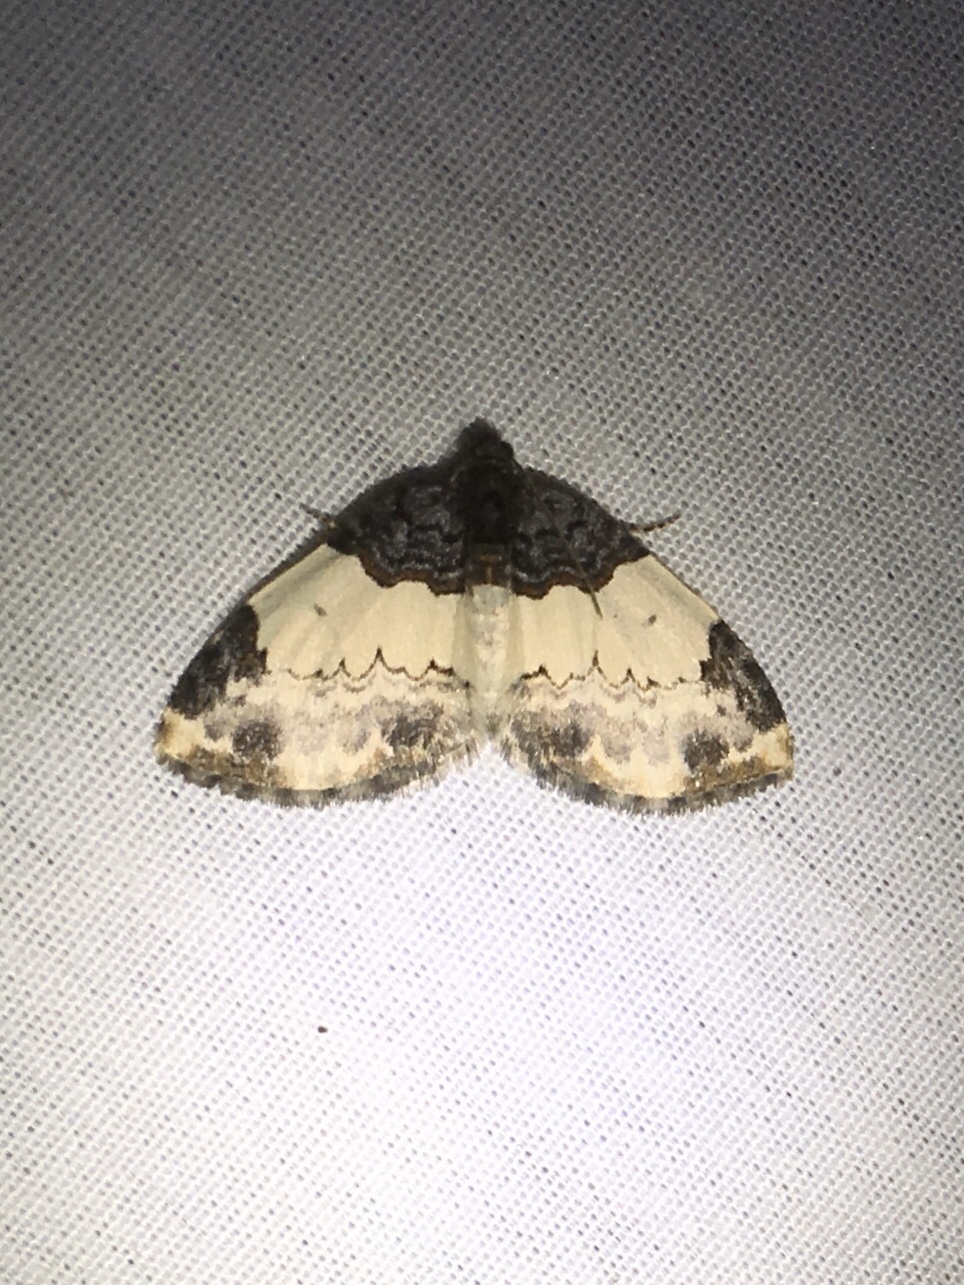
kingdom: Animalia
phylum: Arthropoda
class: Insecta
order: Lepidoptera
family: Geometridae
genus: Mesoleuca
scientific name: Mesoleuca ruficillata
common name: White-ribboned carpet moth
